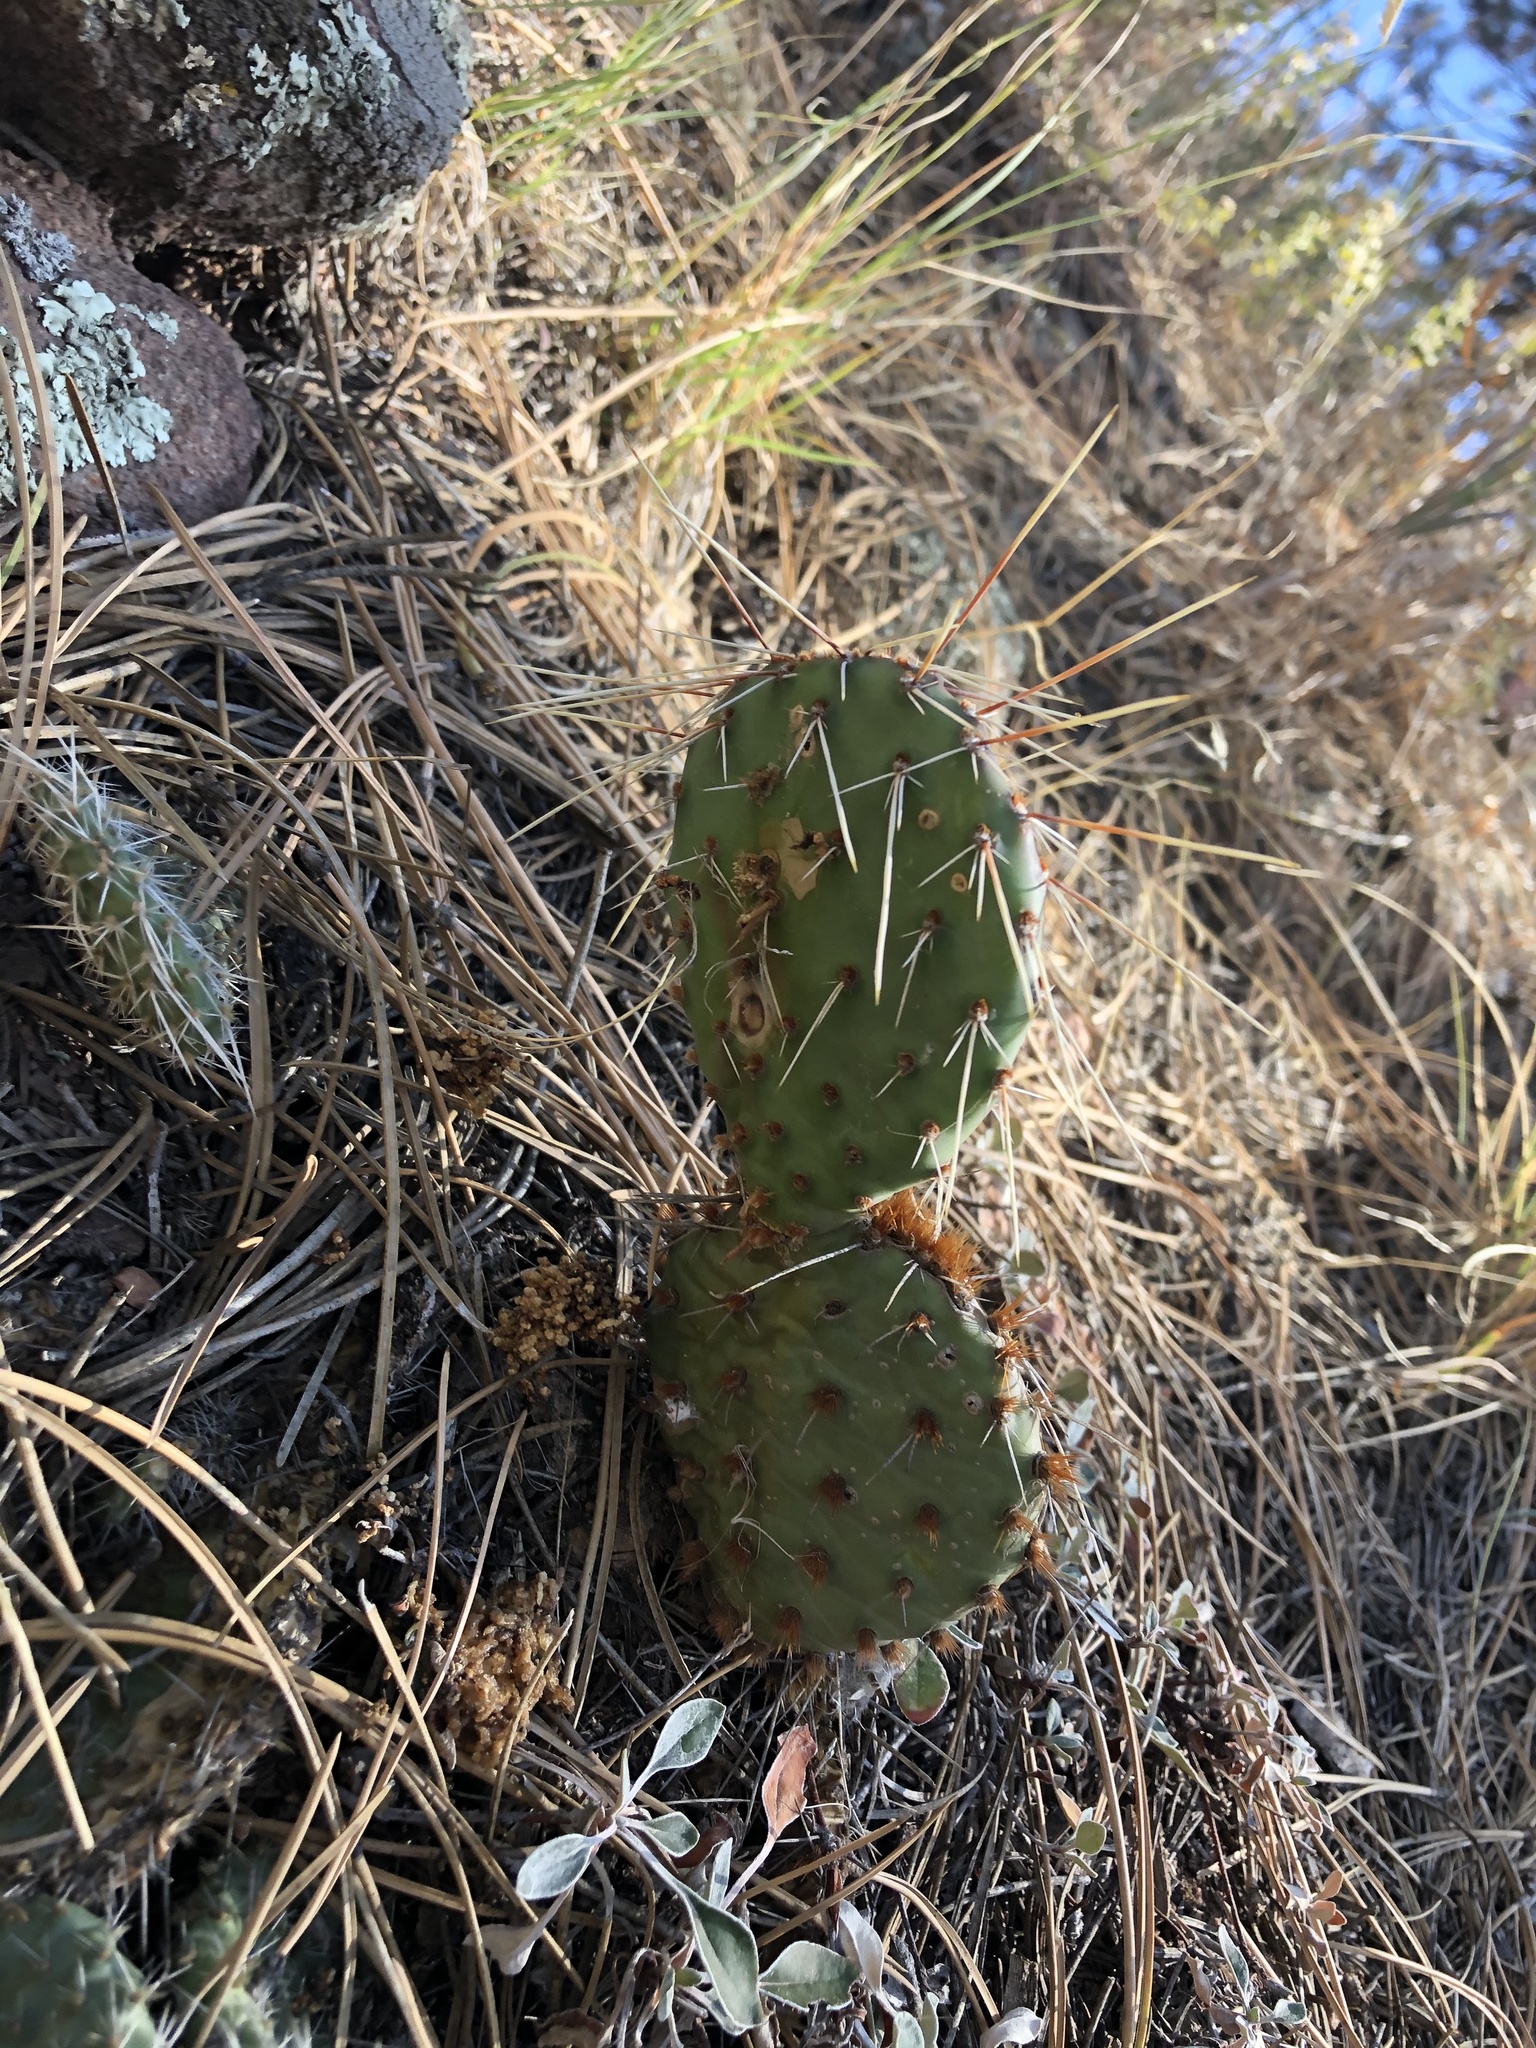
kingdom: Fungi
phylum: Ascomycota
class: Dothideomycetes
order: Botryosphaeriales
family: Phyllostictaceae
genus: Phyllosticta
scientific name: Phyllosticta concava
